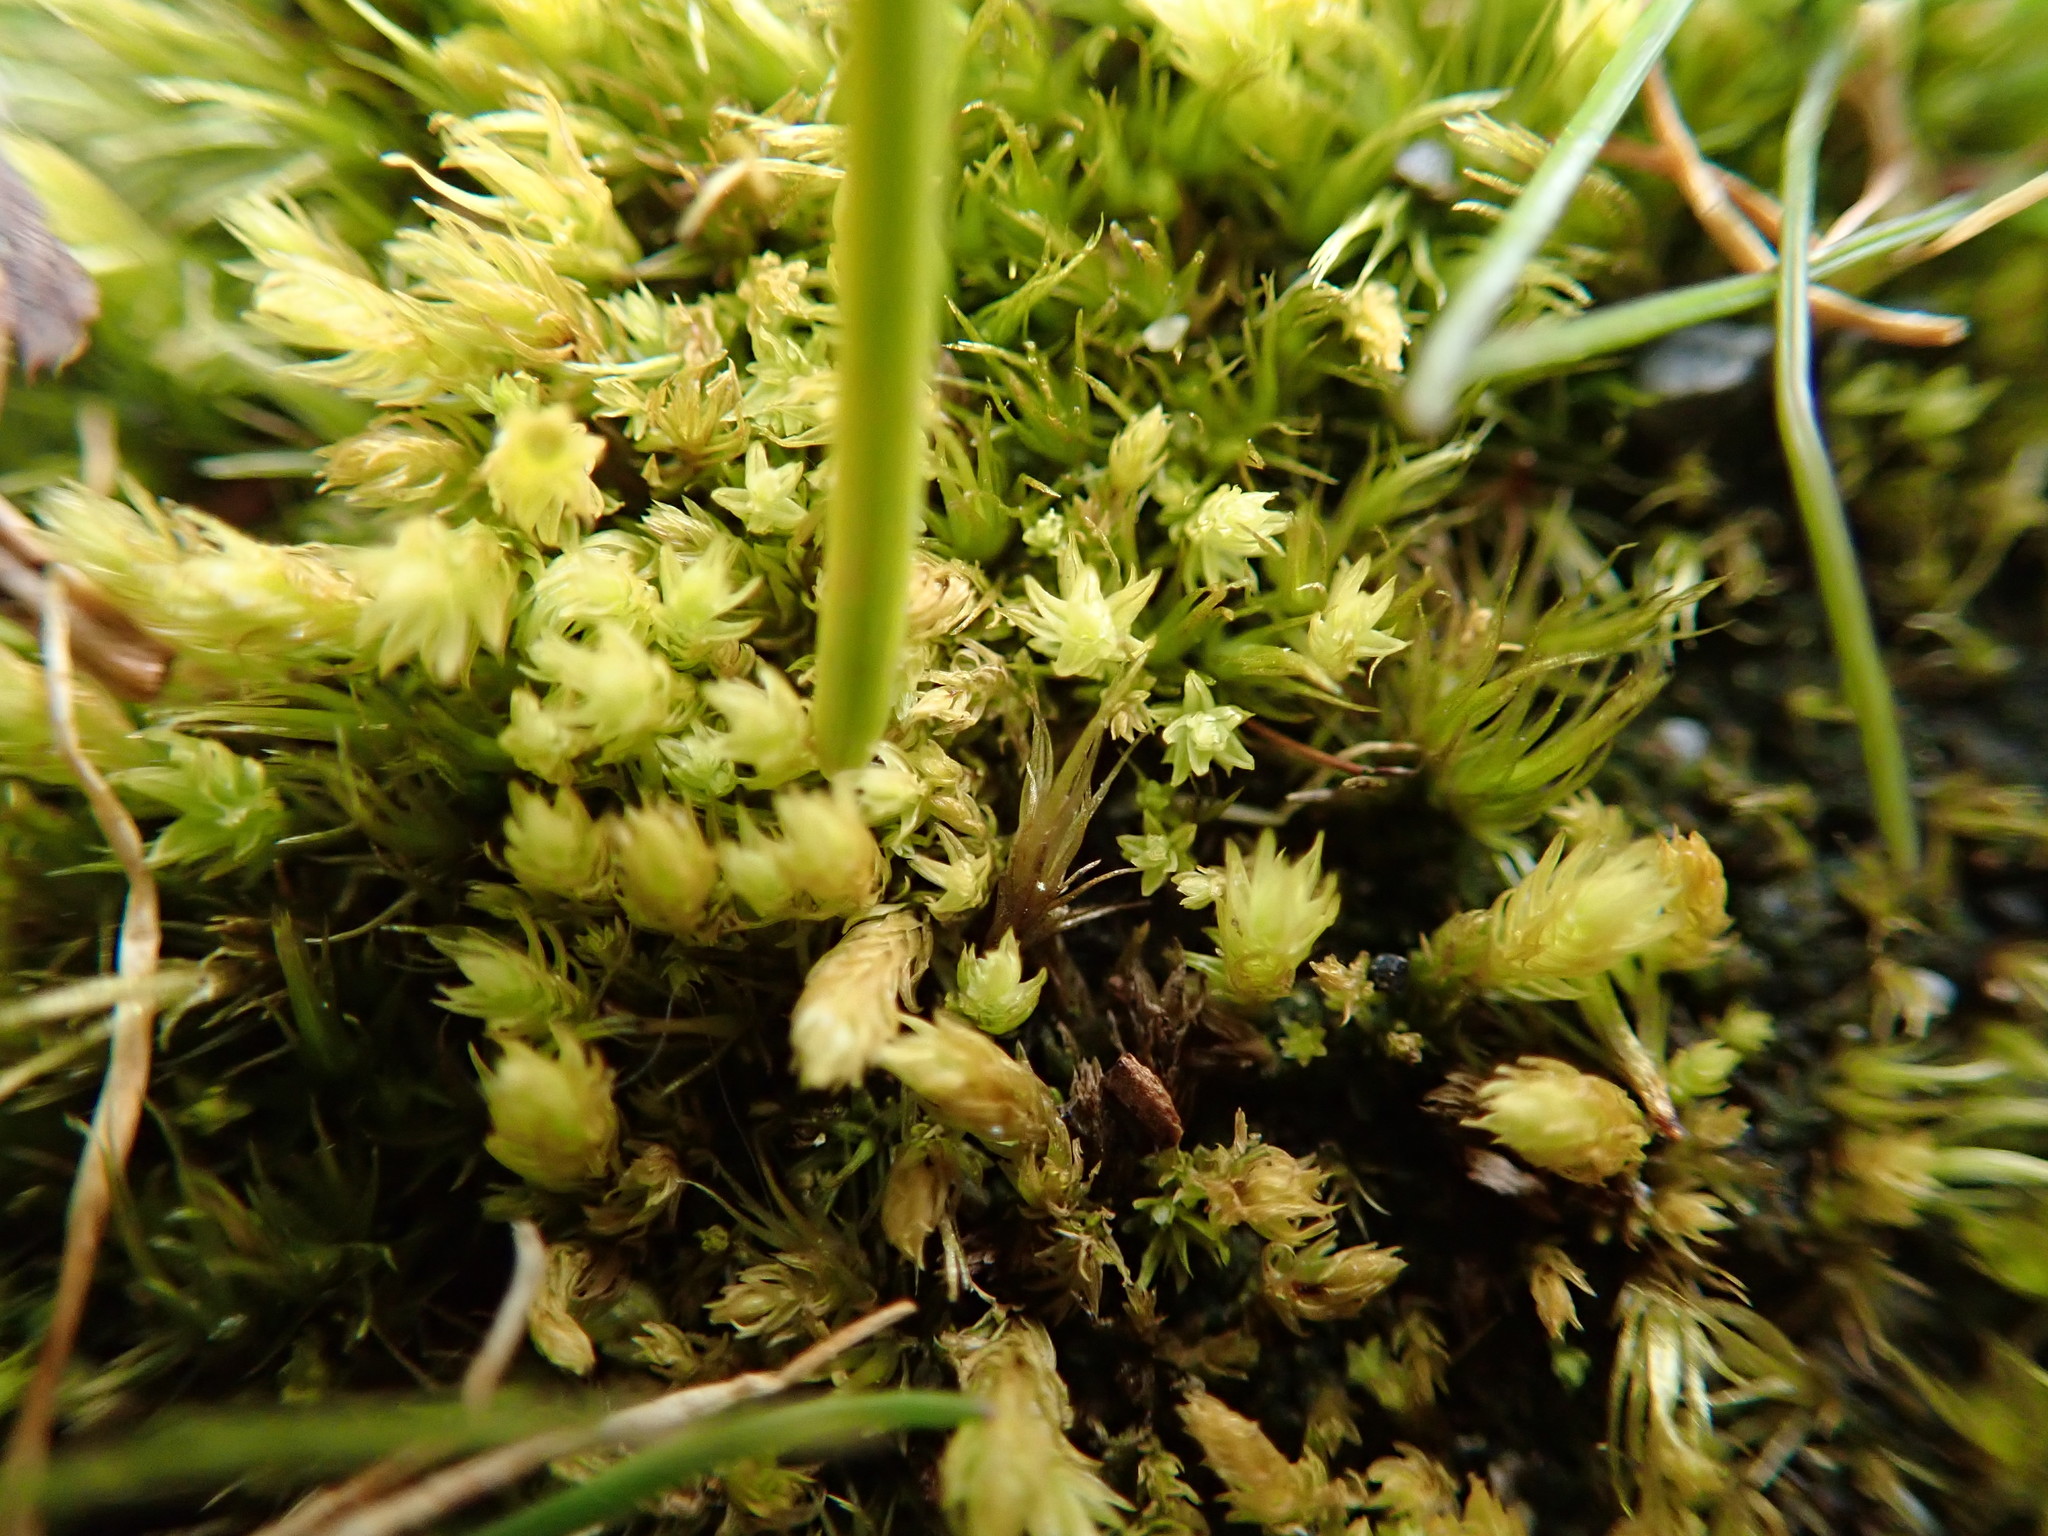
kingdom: Plantae
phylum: Bryophyta
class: Bryopsida
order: Aulacomniales
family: Aulacomniaceae
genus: Aulacomnium
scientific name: Aulacomnium androgynum
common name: Little groove moss
